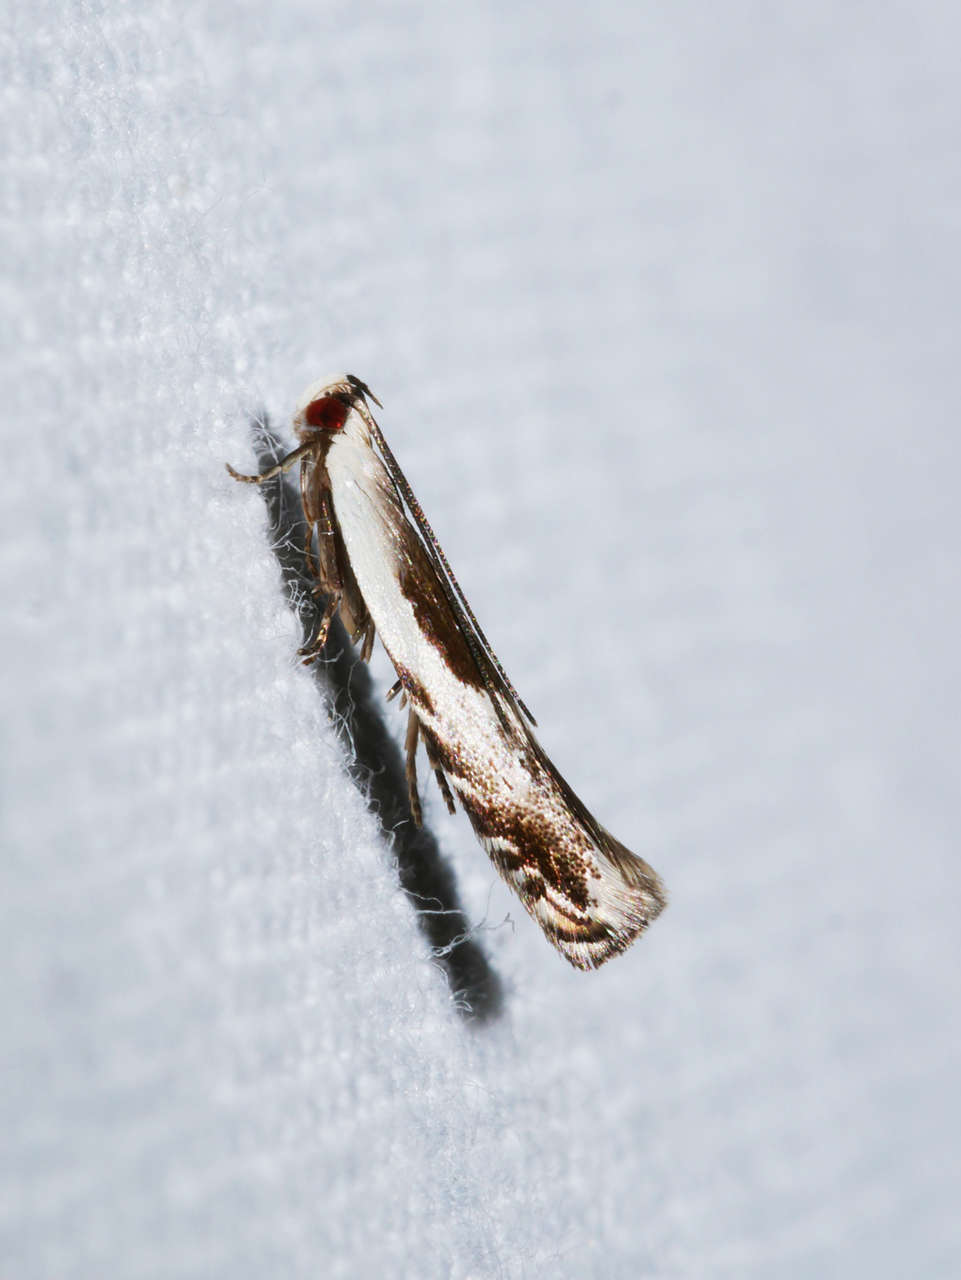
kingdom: Animalia
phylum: Arthropoda
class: Insecta
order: Lepidoptera
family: Gelechiidae
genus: Tritadelpha
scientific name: Tritadelpha microptila
